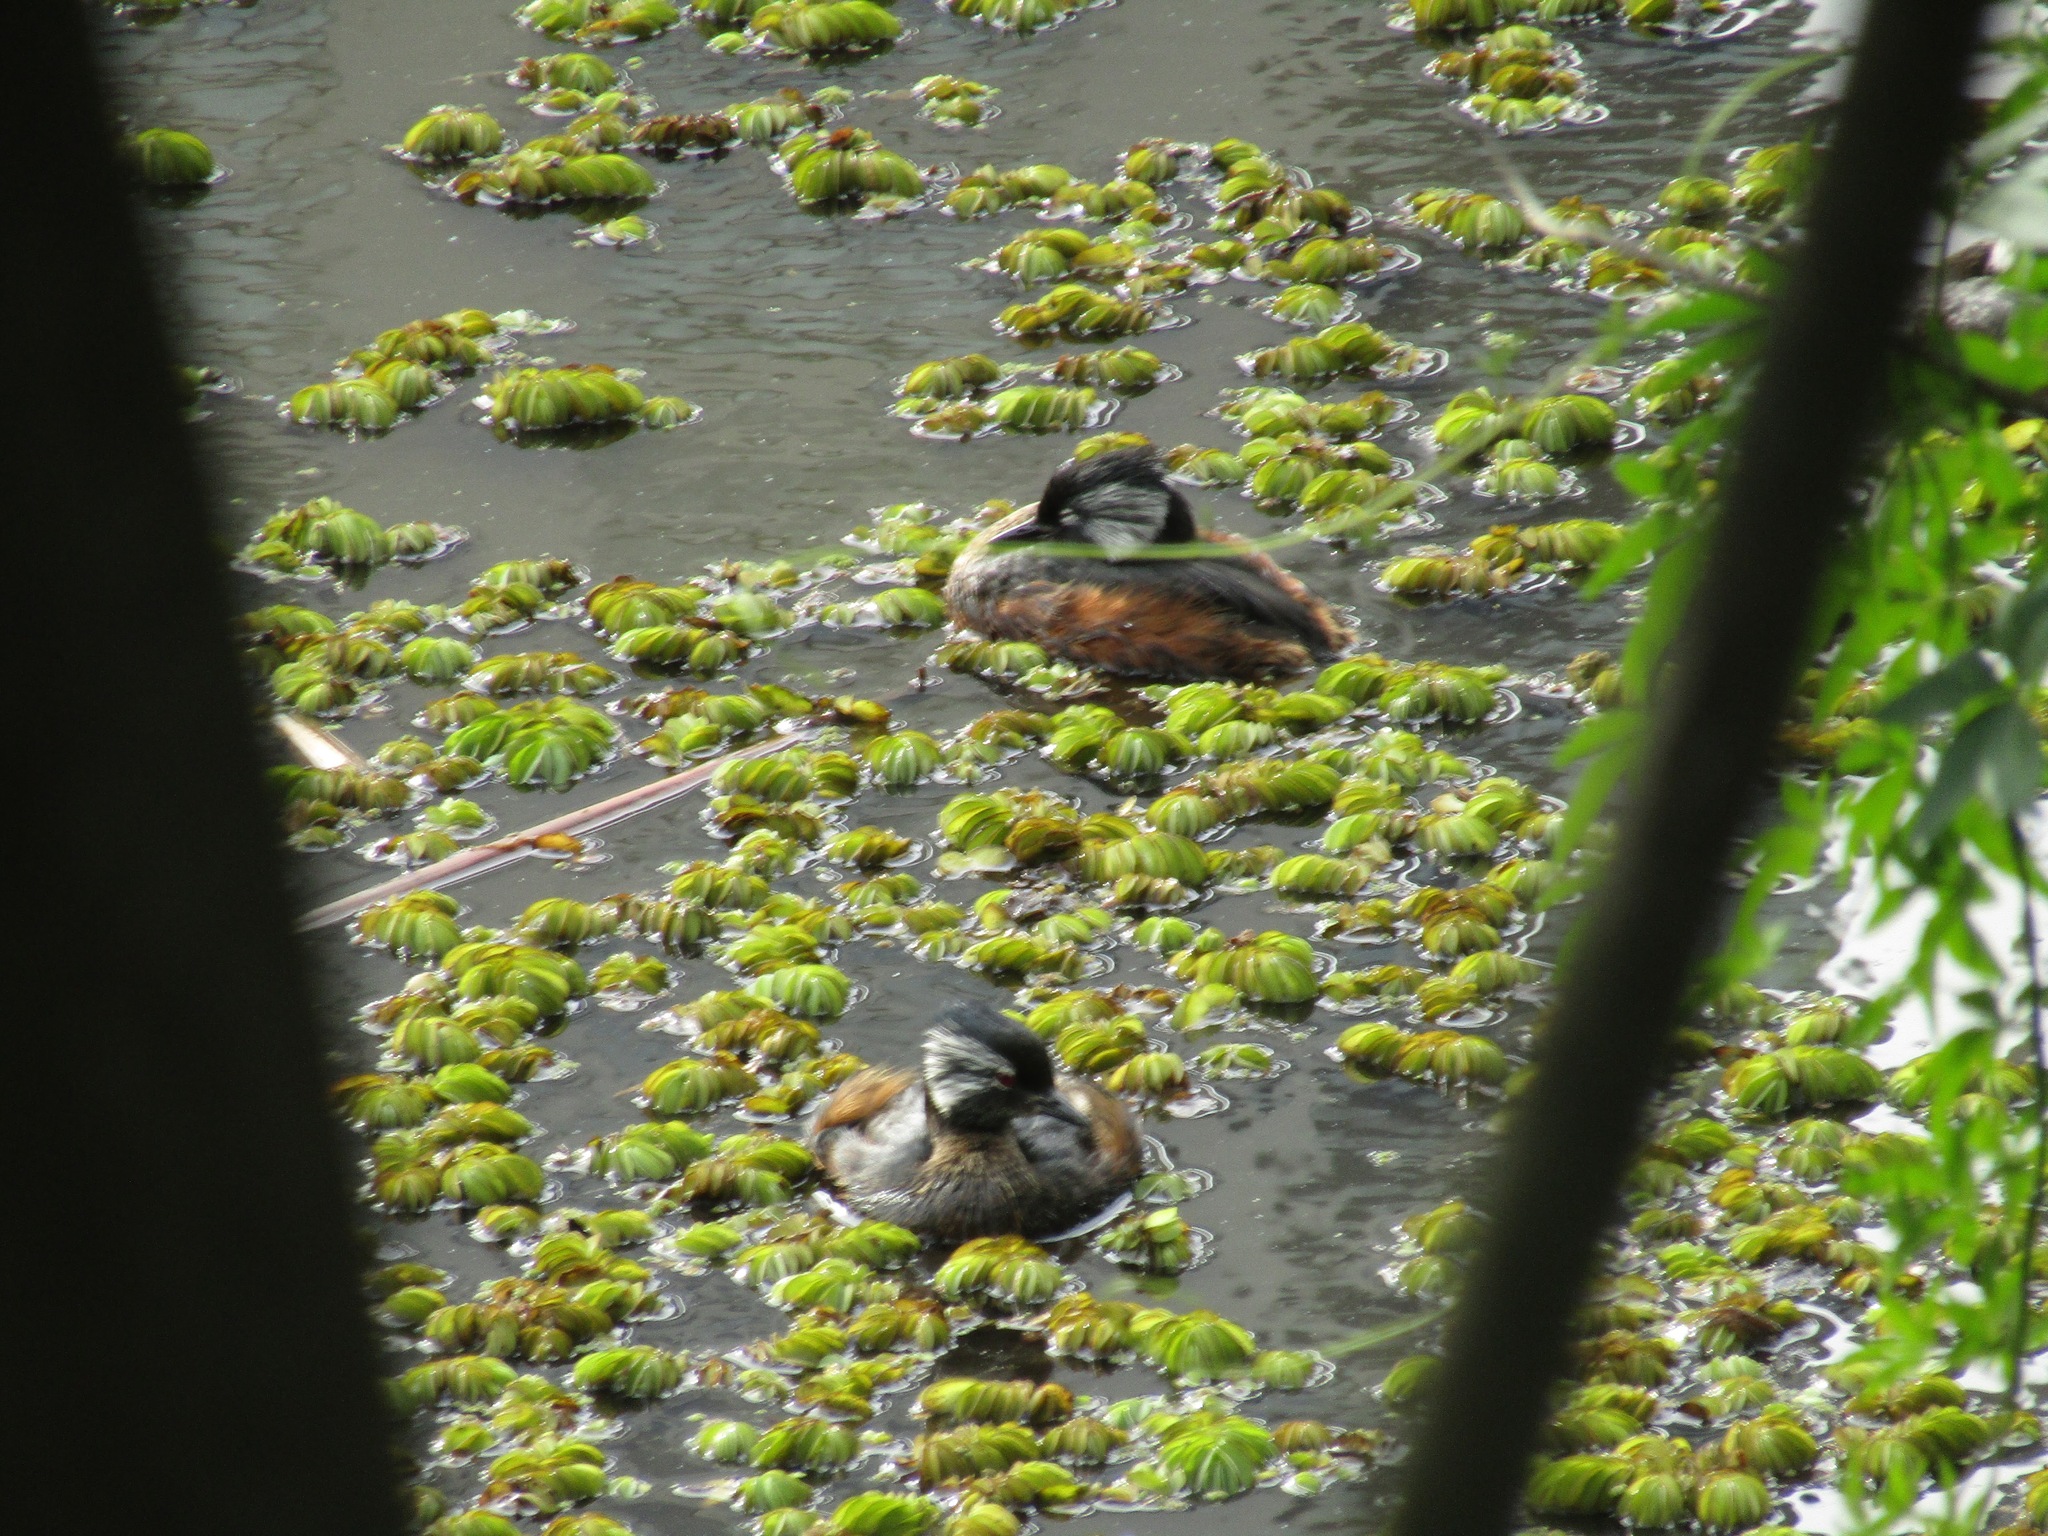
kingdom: Animalia
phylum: Chordata
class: Aves
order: Podicipediformes
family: Podicipedidae
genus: Rollandia
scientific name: Rollandia rolland
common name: White-tufted grebe
